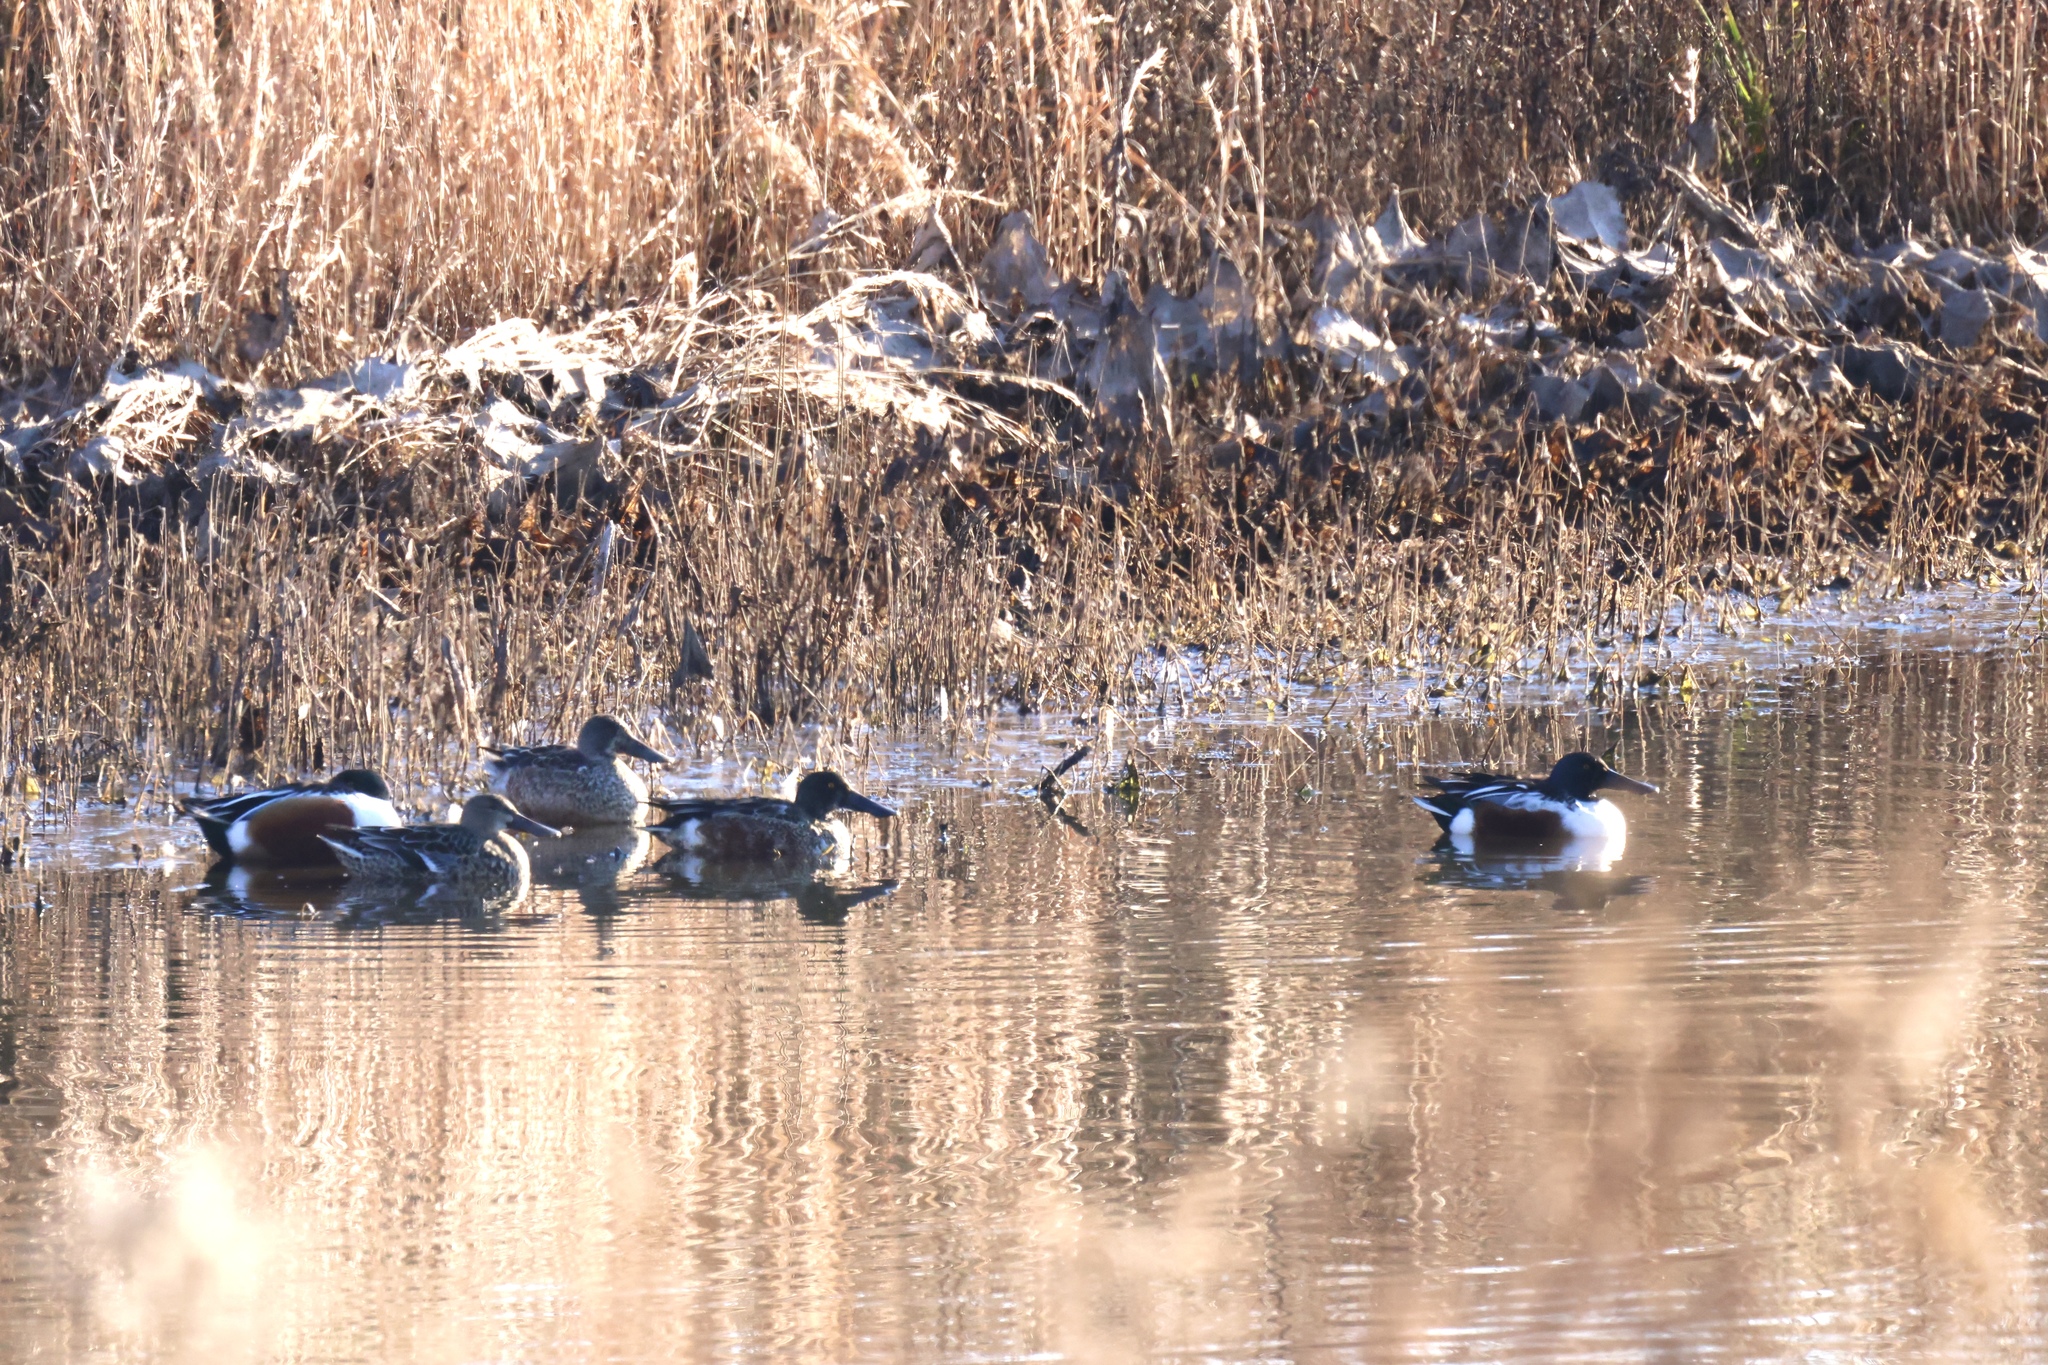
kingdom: Animalia
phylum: Chordata
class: Aves
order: Anseriformes
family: Anatidae
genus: Spatula
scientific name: Spatula clypeata
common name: Northern shoveler
